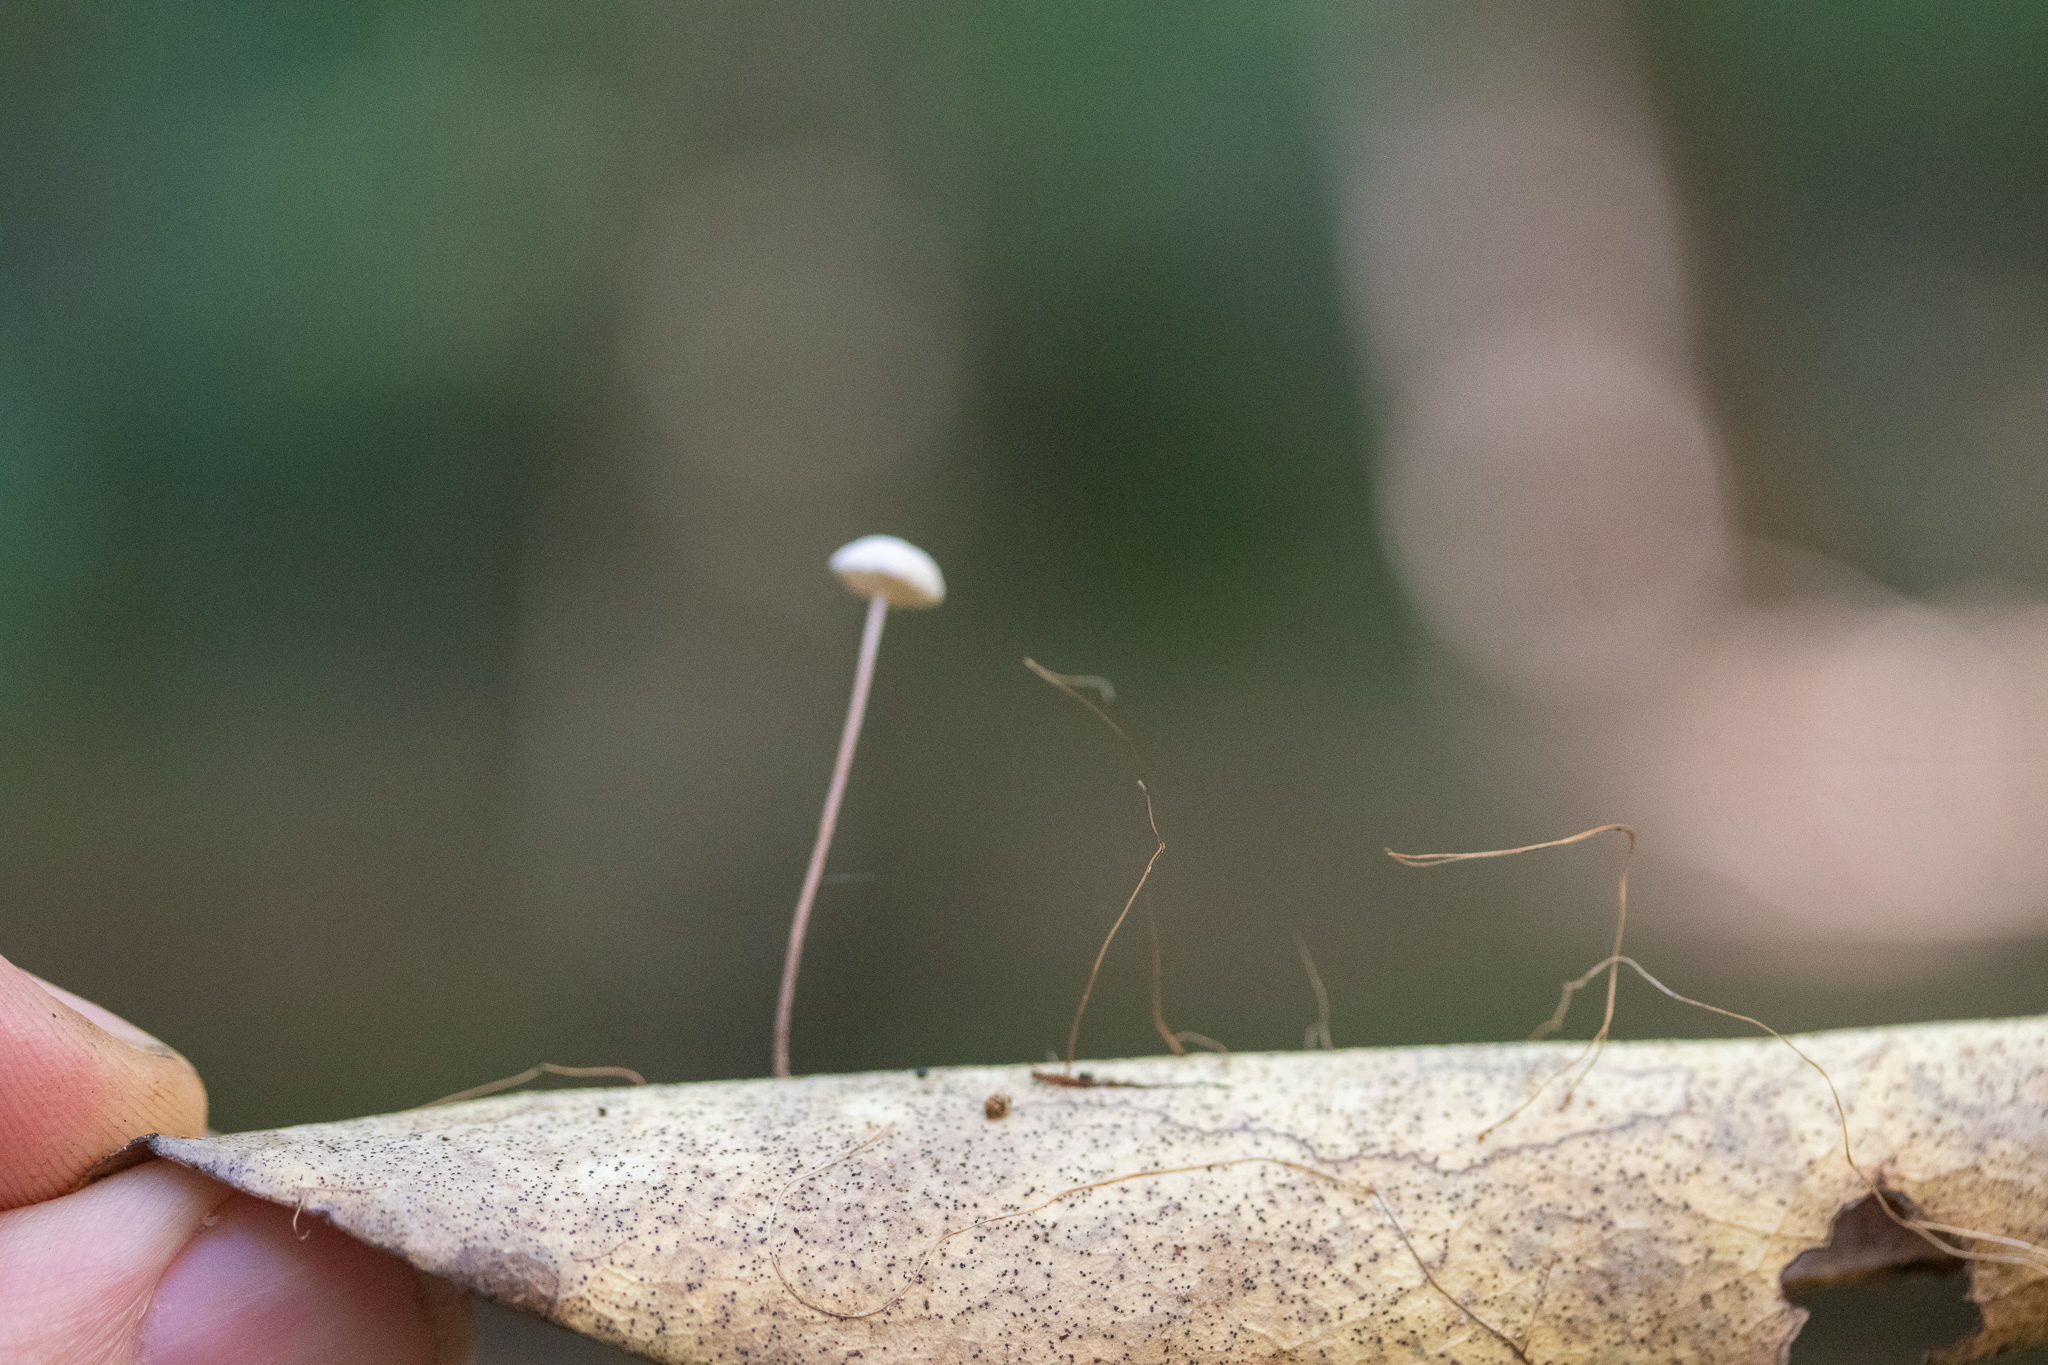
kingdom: Fungi
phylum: Basidiomycota
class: Agaricomycetes
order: Agaricales
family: Omphalotaceae
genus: Mycetinis
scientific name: Mycetinis opacus
